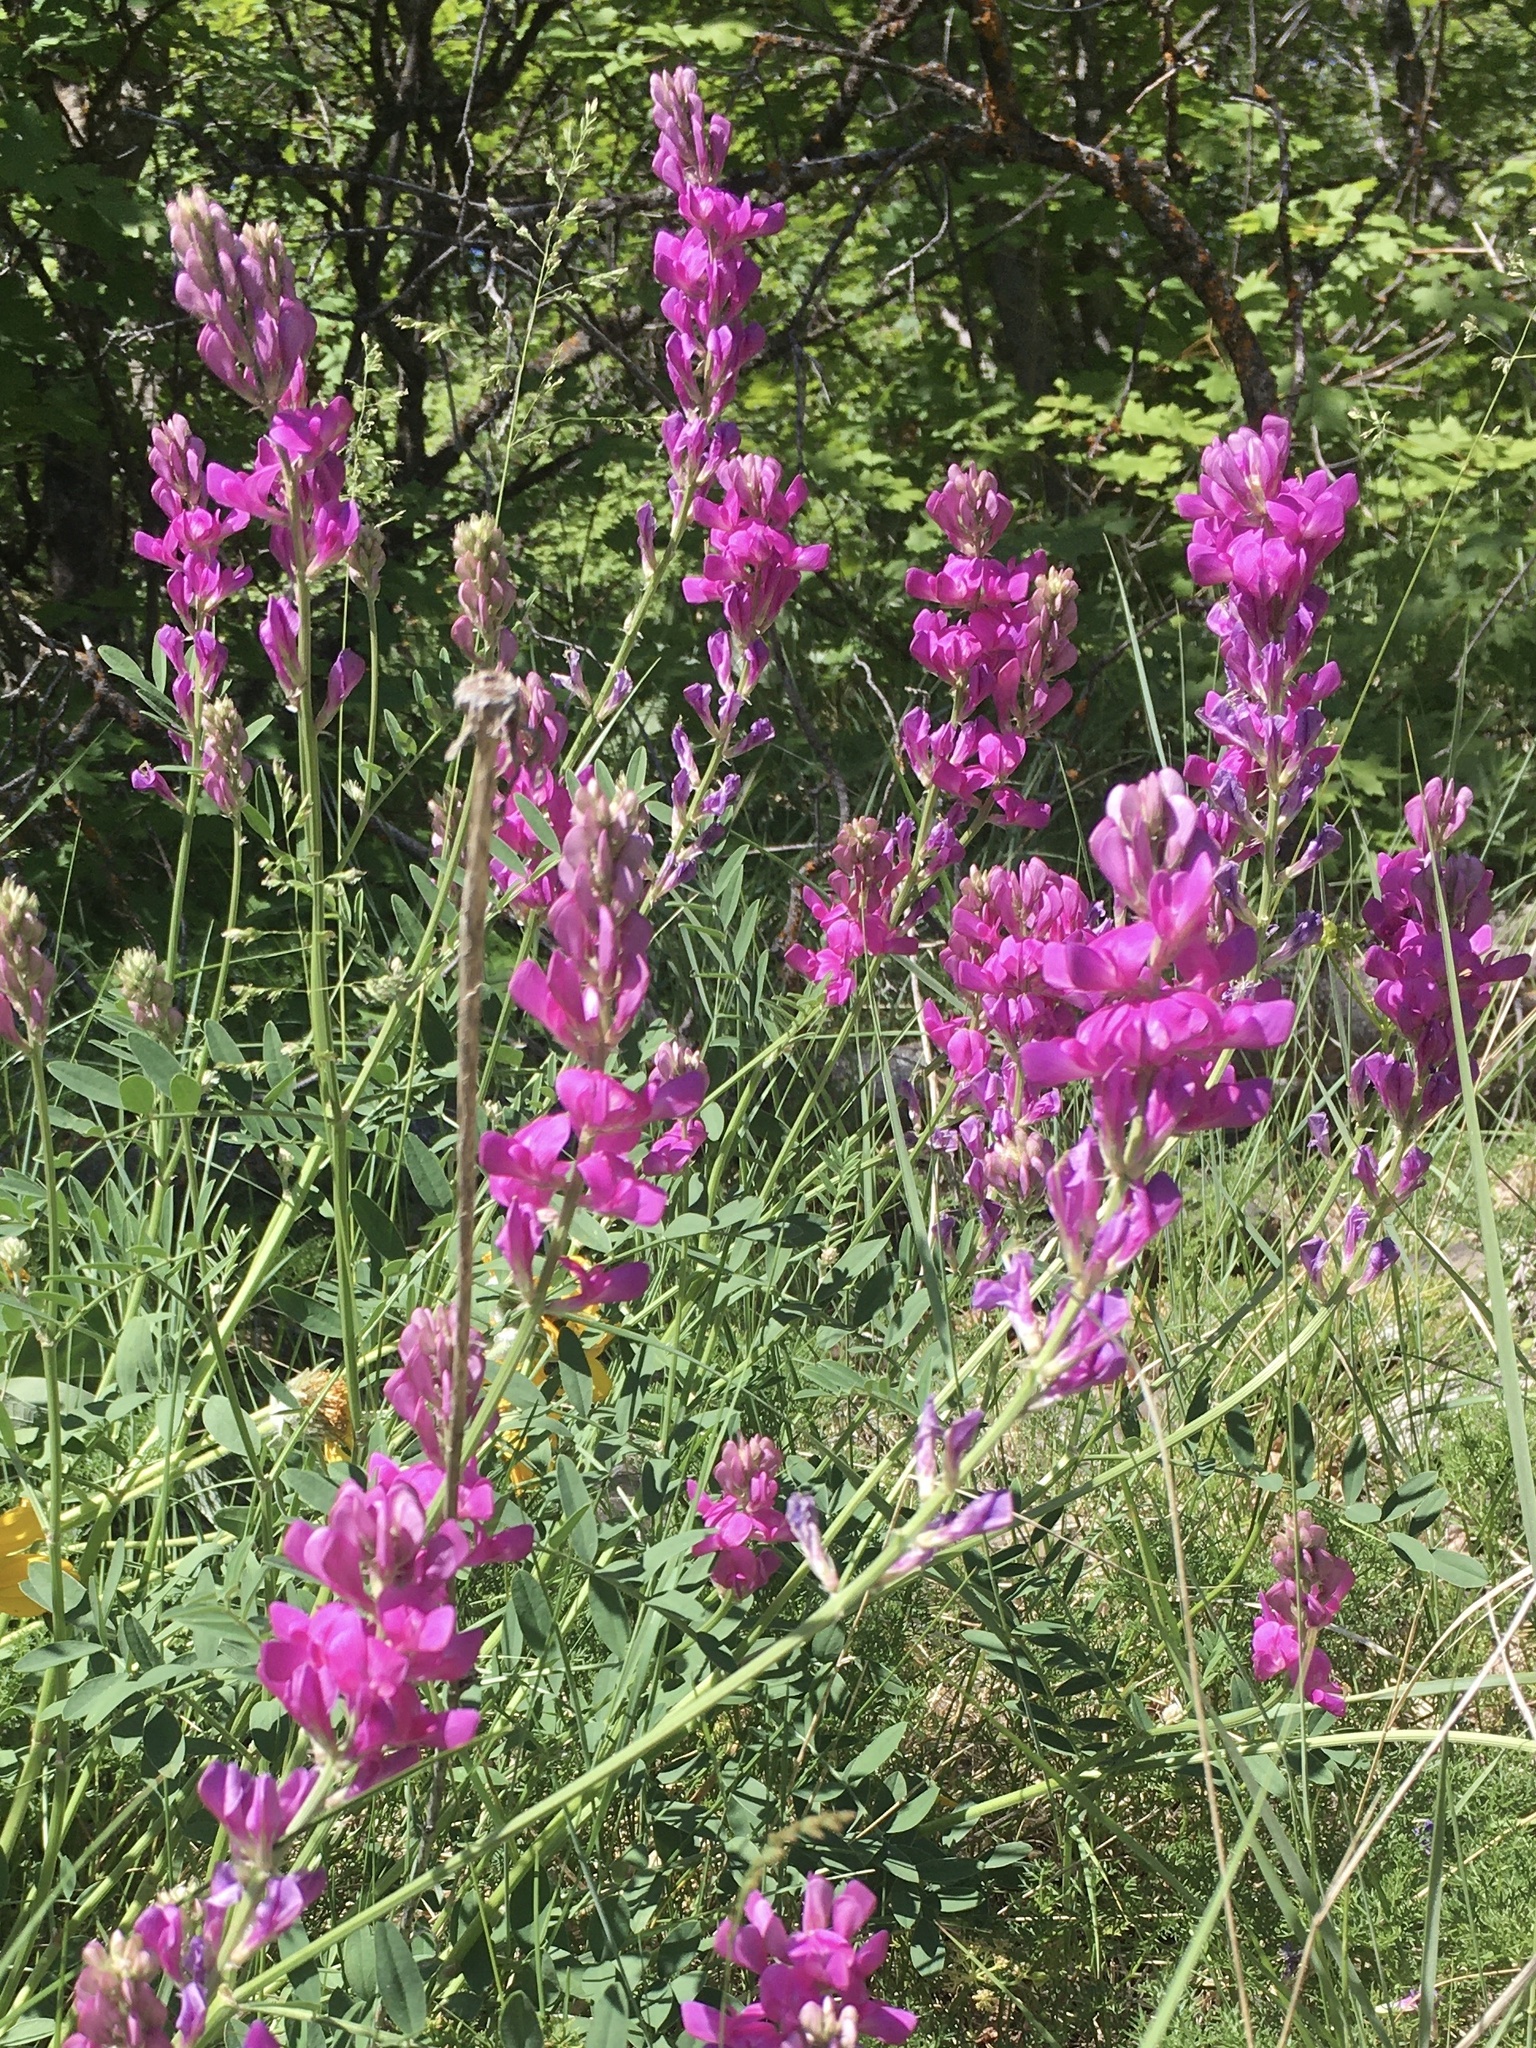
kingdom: Plantae
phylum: Tracheophyta
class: Magnoliopsida
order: Fabales
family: Fabaceae
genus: Hedysarum
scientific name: Hedysarum boreale
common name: Northern sweet-vetch
